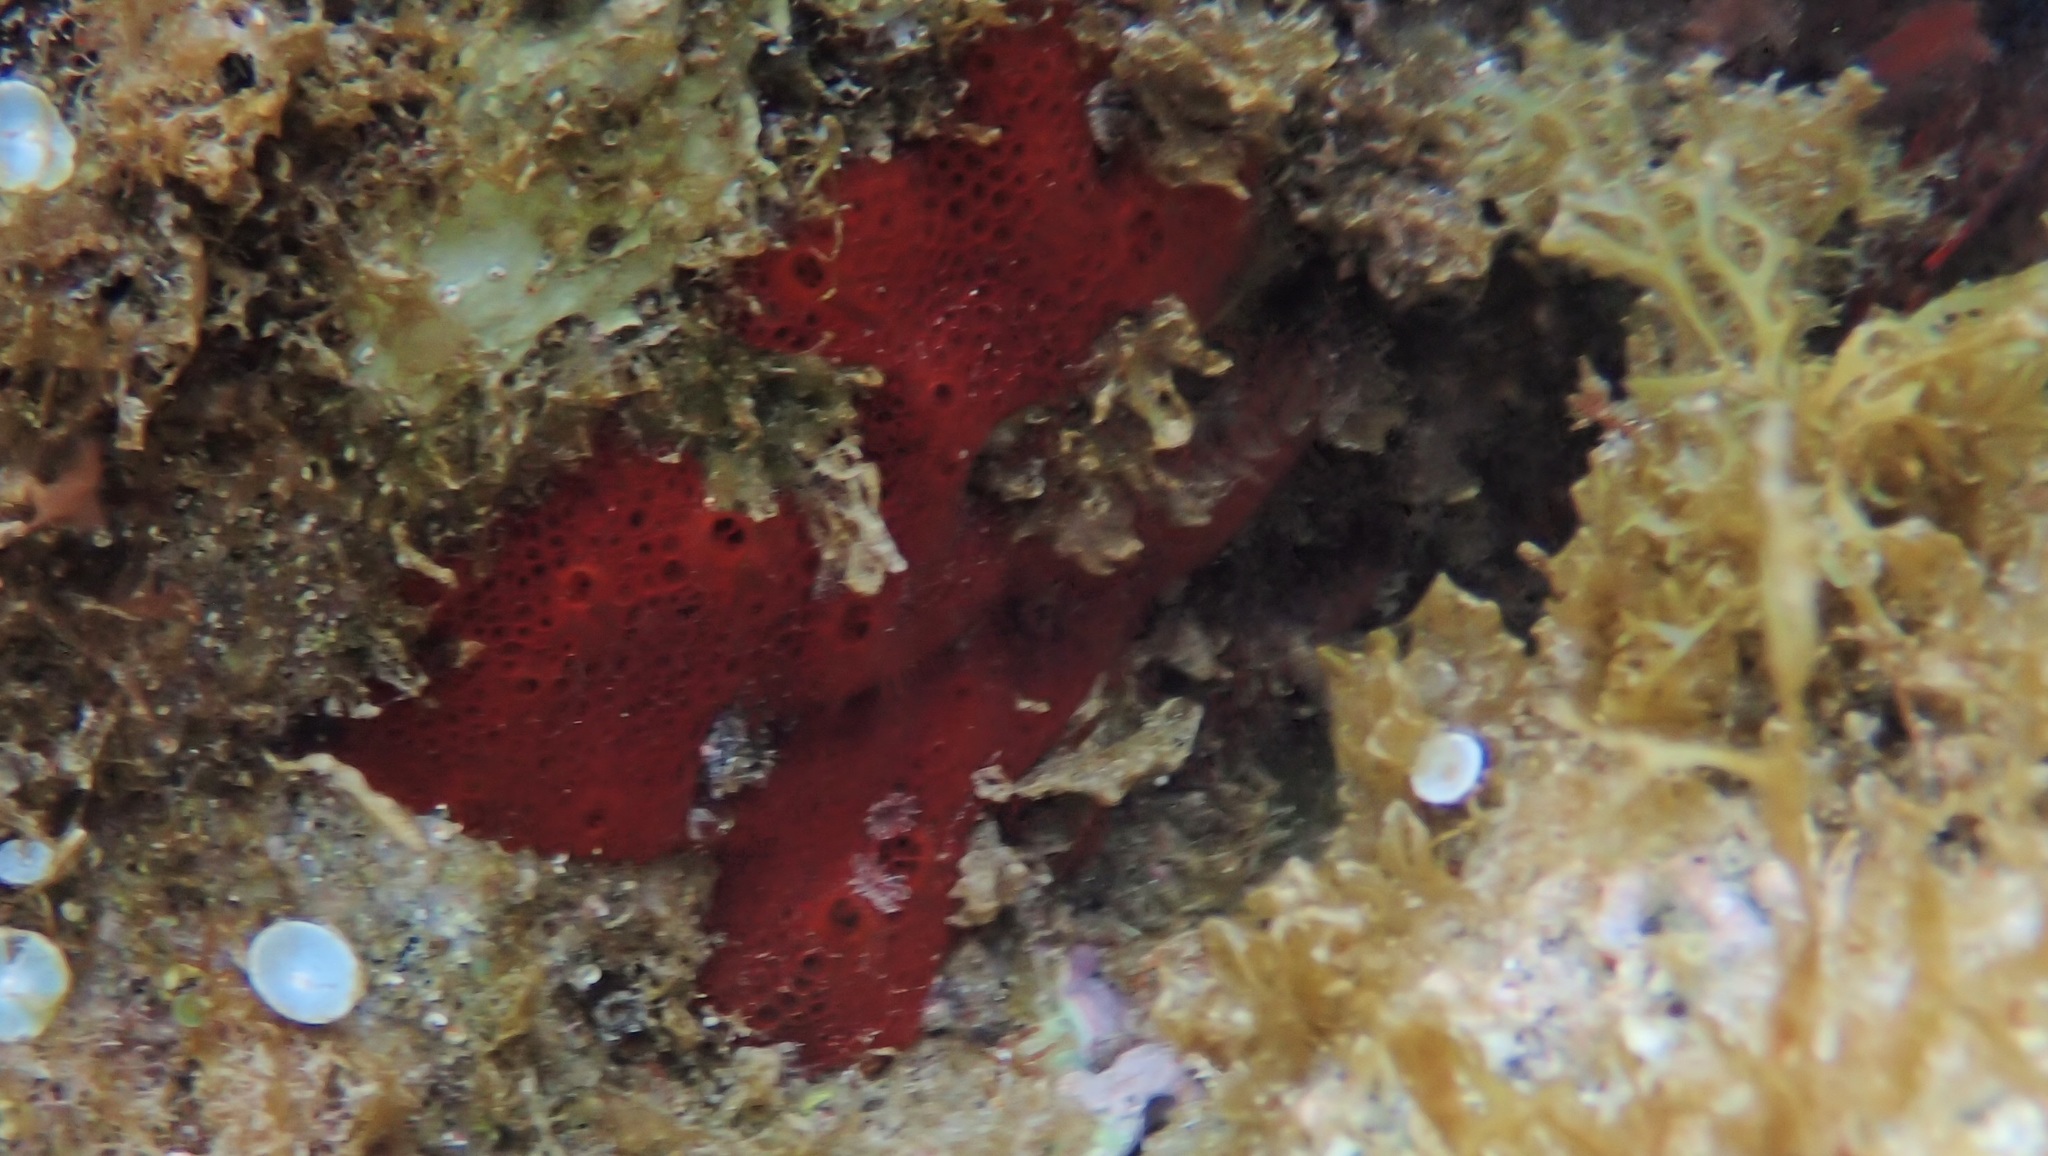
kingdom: Animalia
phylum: Porifera
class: Demospongiae
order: Poecilosclerida
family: Hymedesmiidae
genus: Hamigera
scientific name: Hamigera hamigera
